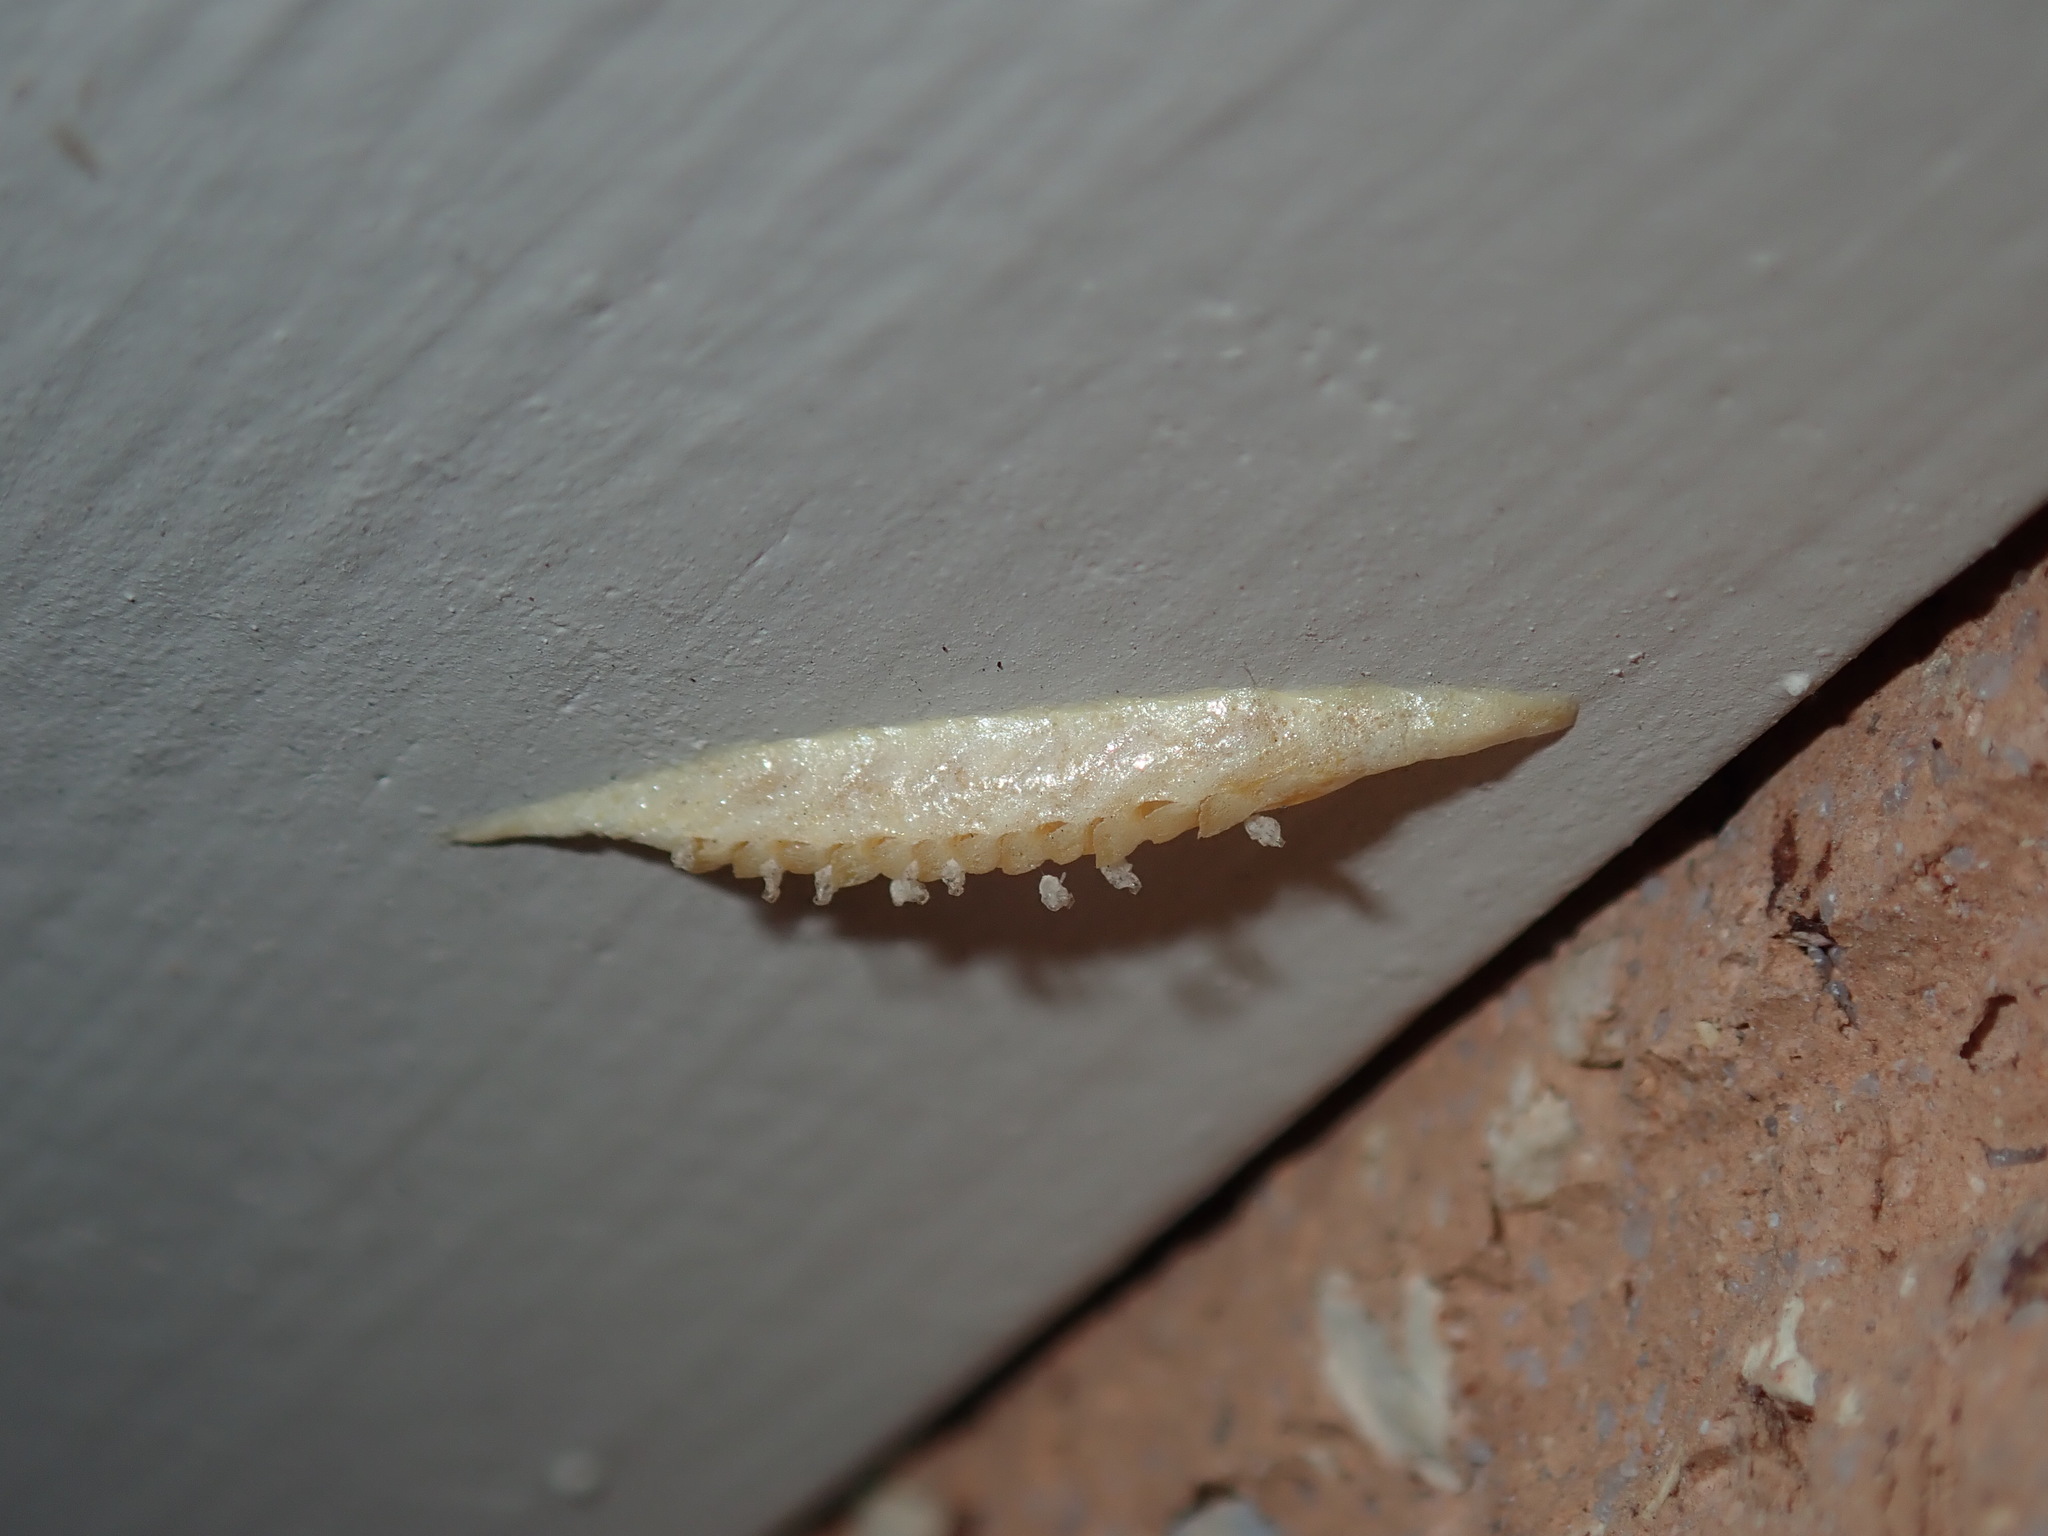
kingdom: Animalia
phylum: Arthropoda
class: Insecta
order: Mantodea
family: Nanomantidae
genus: Kongobatha
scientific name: Kongobatha diademata
